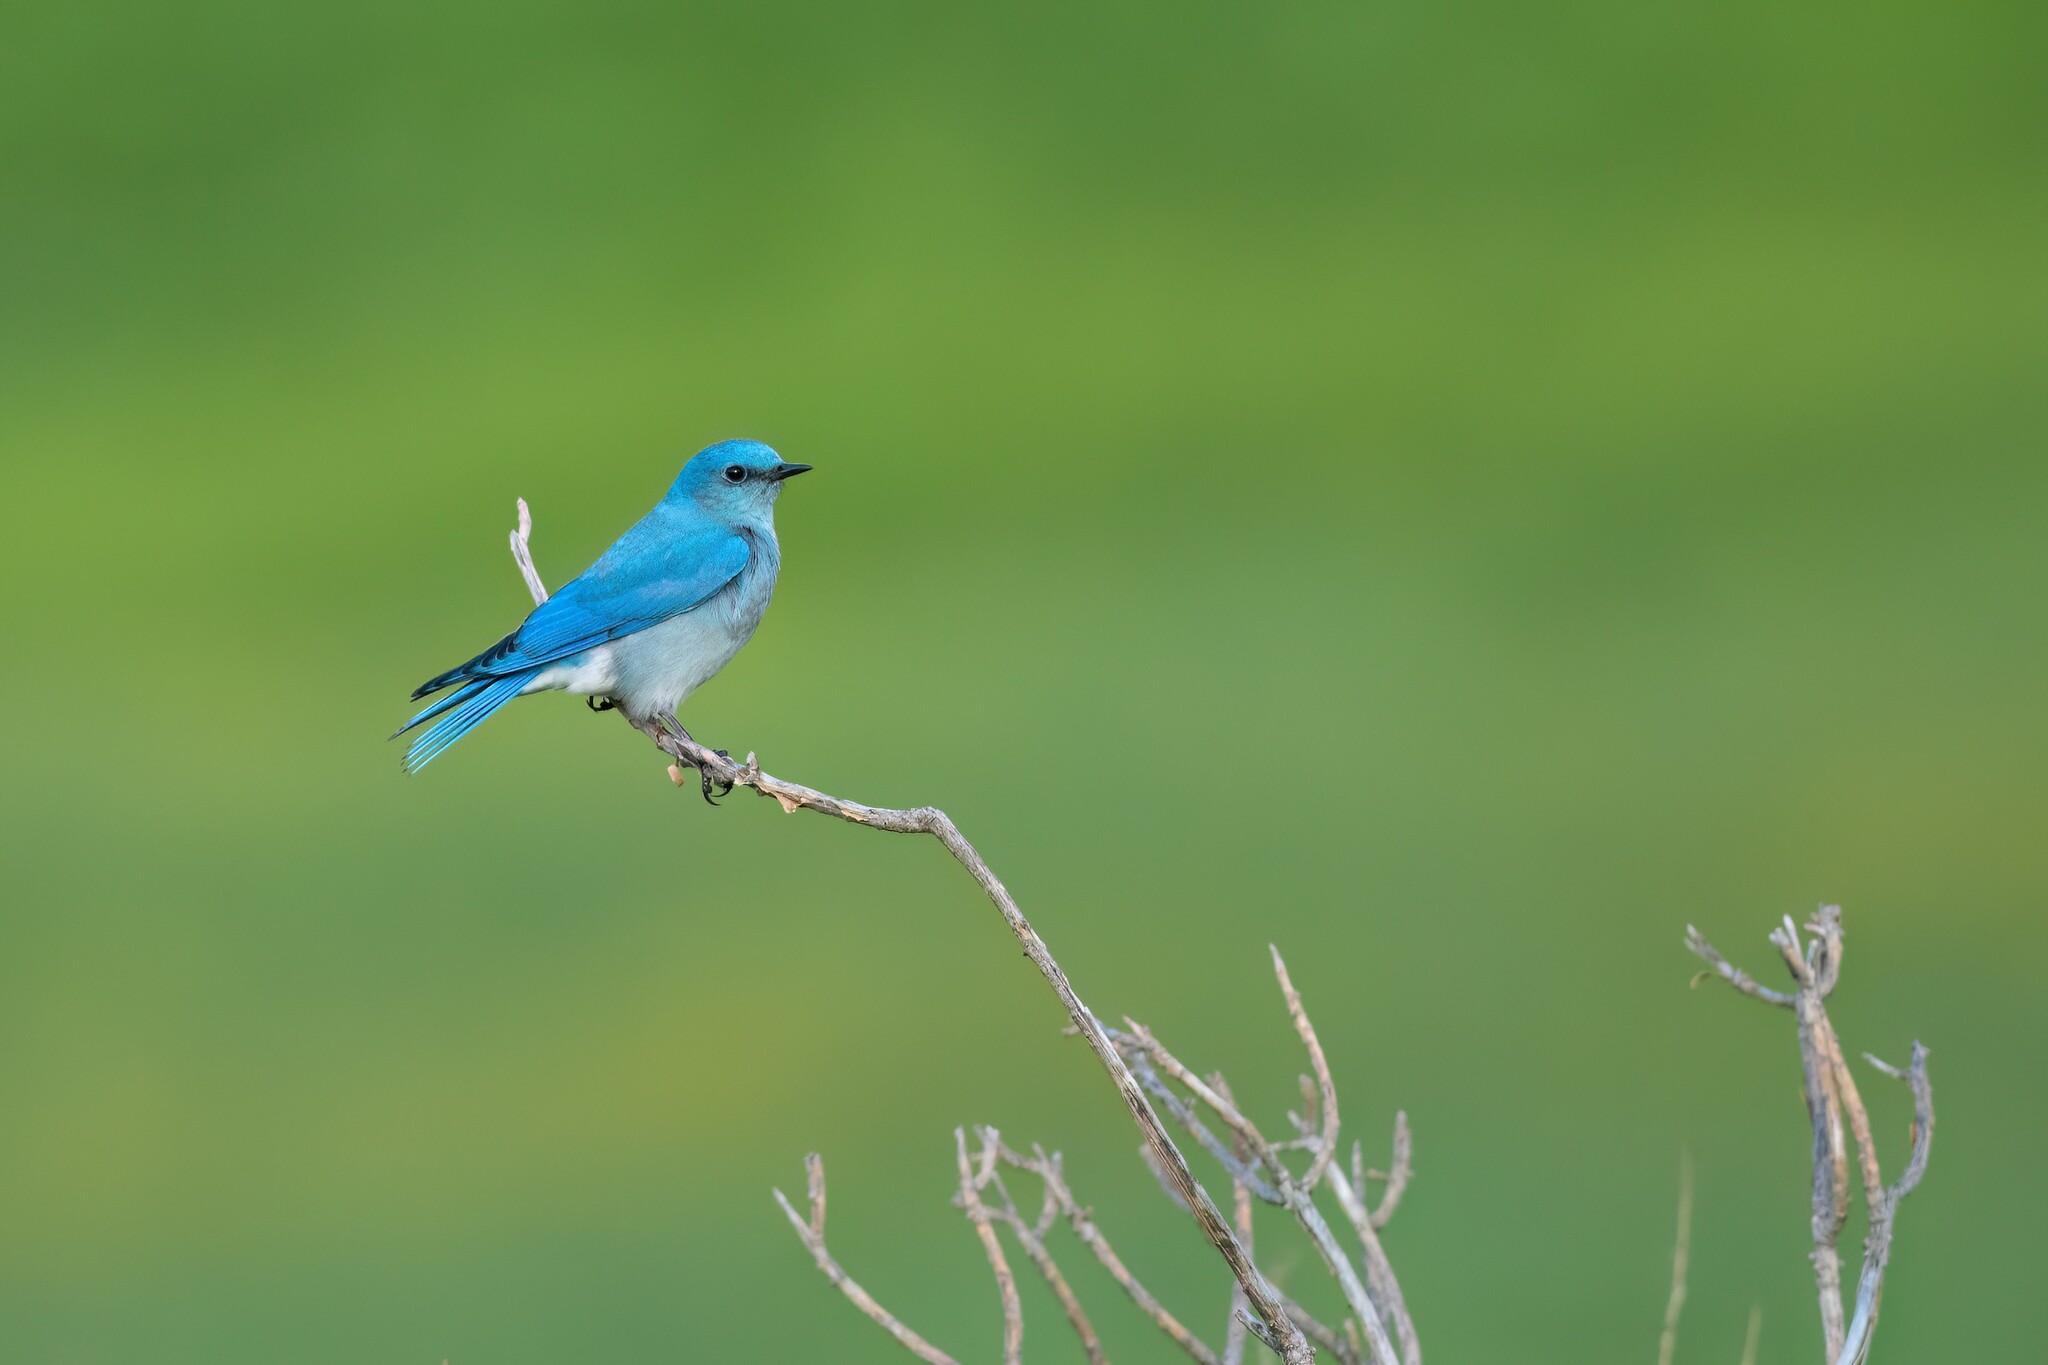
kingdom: Animalia
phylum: Chordata
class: Aves
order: Passeriformes
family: Turdidae
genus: Sialia
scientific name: Sialia currucoides
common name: Mountain bluebird
